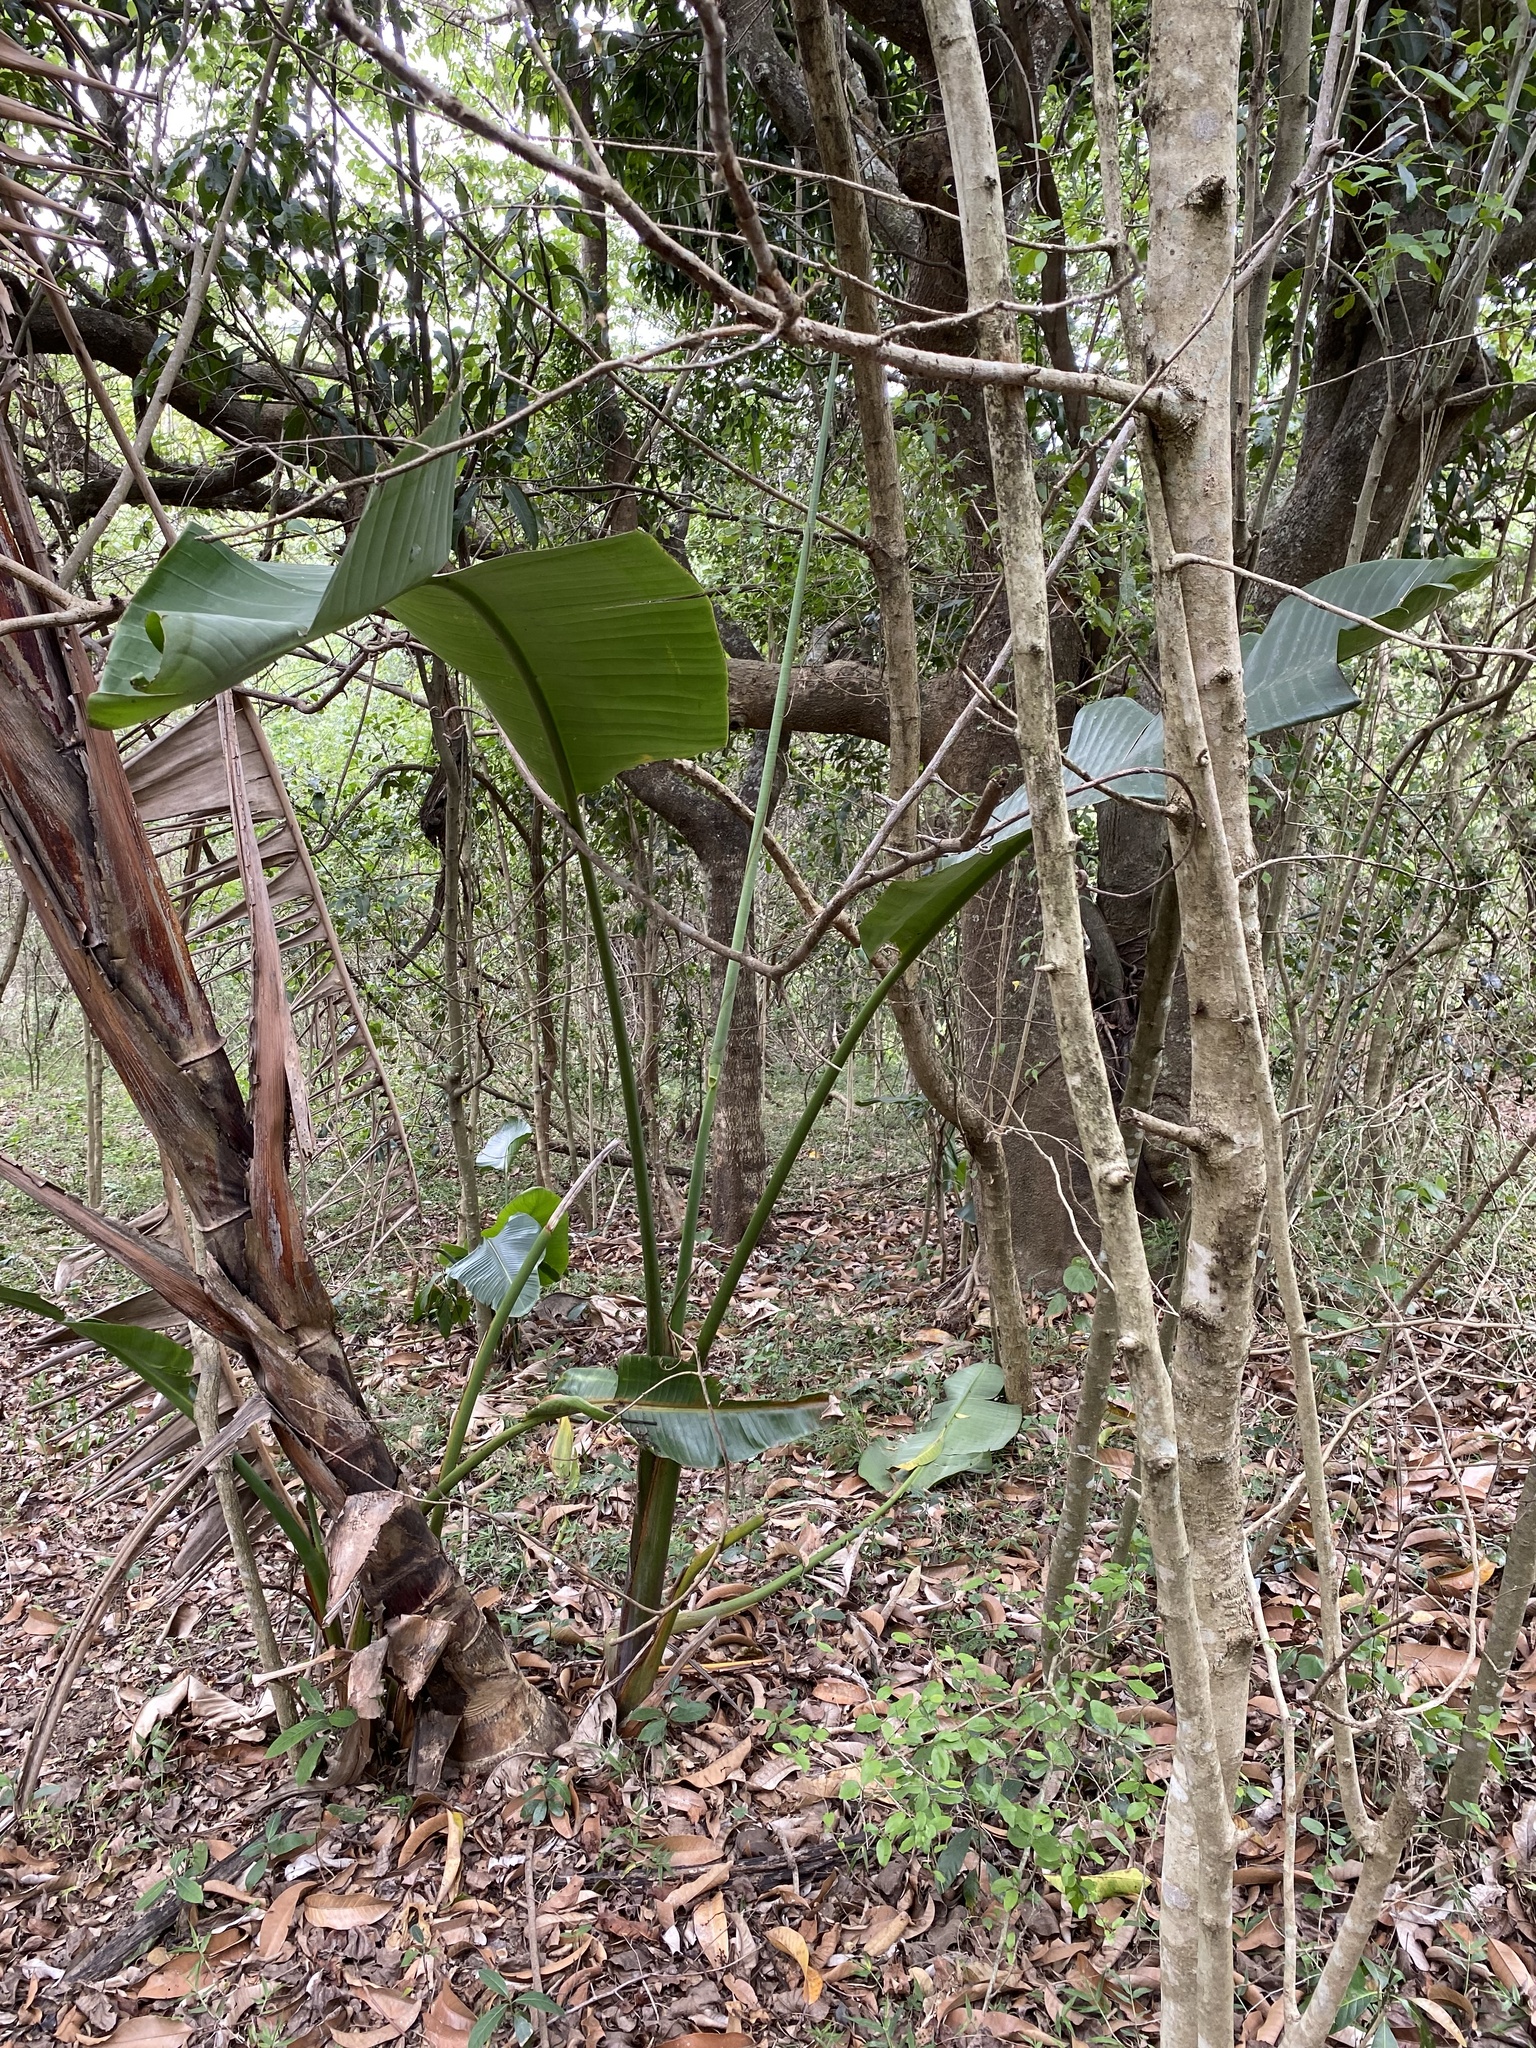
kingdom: Plantae
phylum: Tracheophyta
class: Liliopsida
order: Zingiberales
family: Strelitziaceae
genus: Strelitzia
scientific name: Strelitzia nicolai
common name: Bird-of-paradise tree
